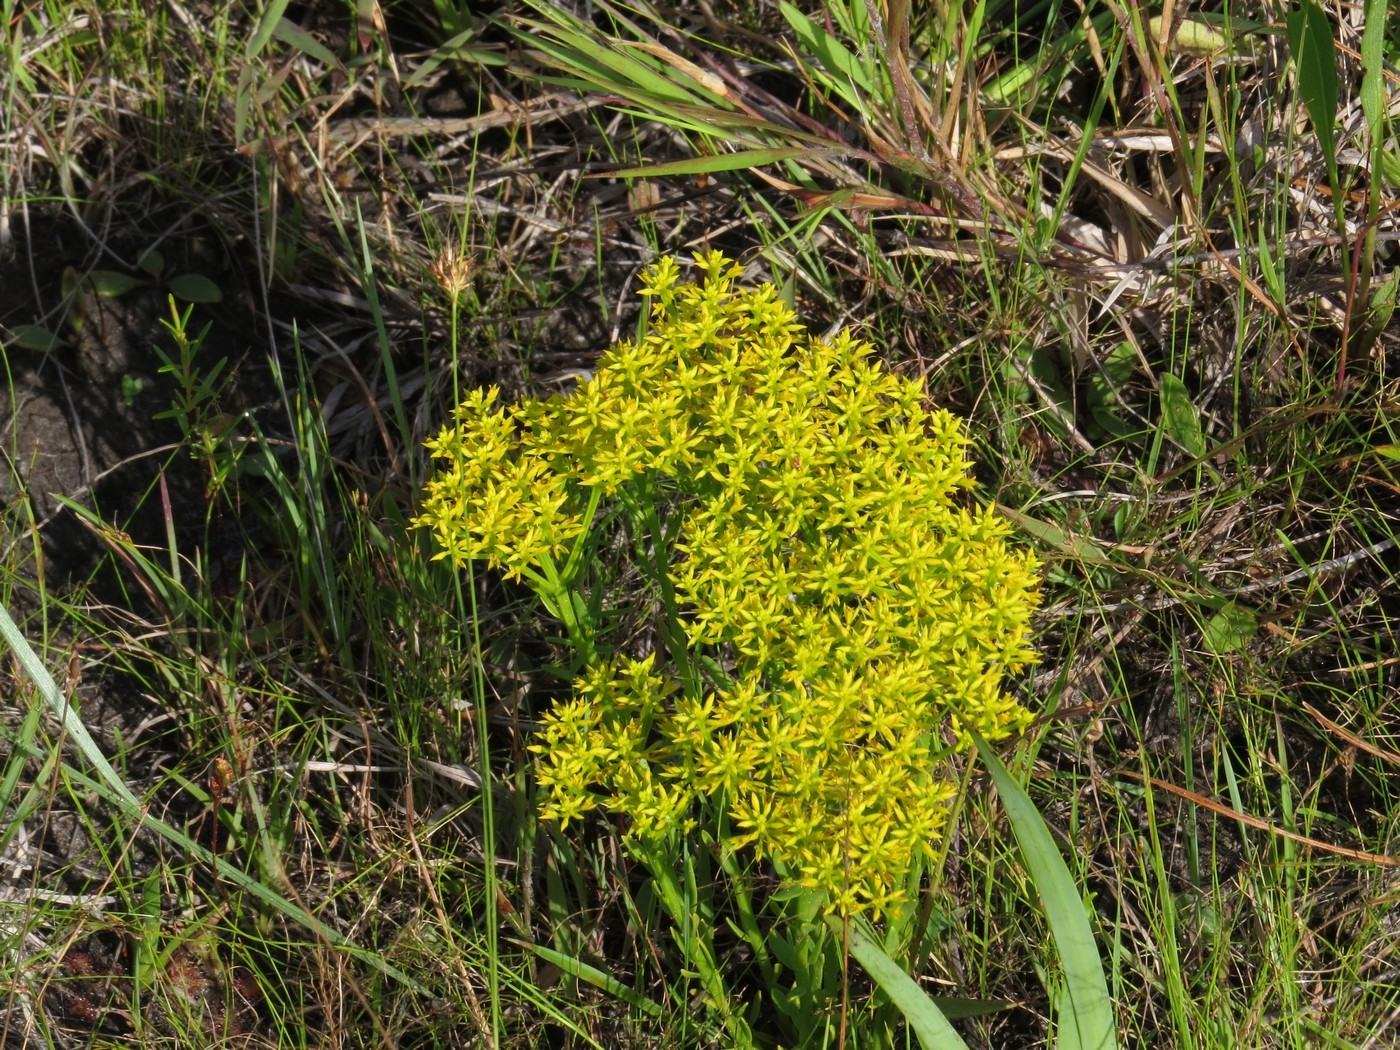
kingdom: Plantae
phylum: Tracheophyta
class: Magnoliopsida
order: Fabales
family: Polygalaceae
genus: Polygala
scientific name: Polygala ramosa
